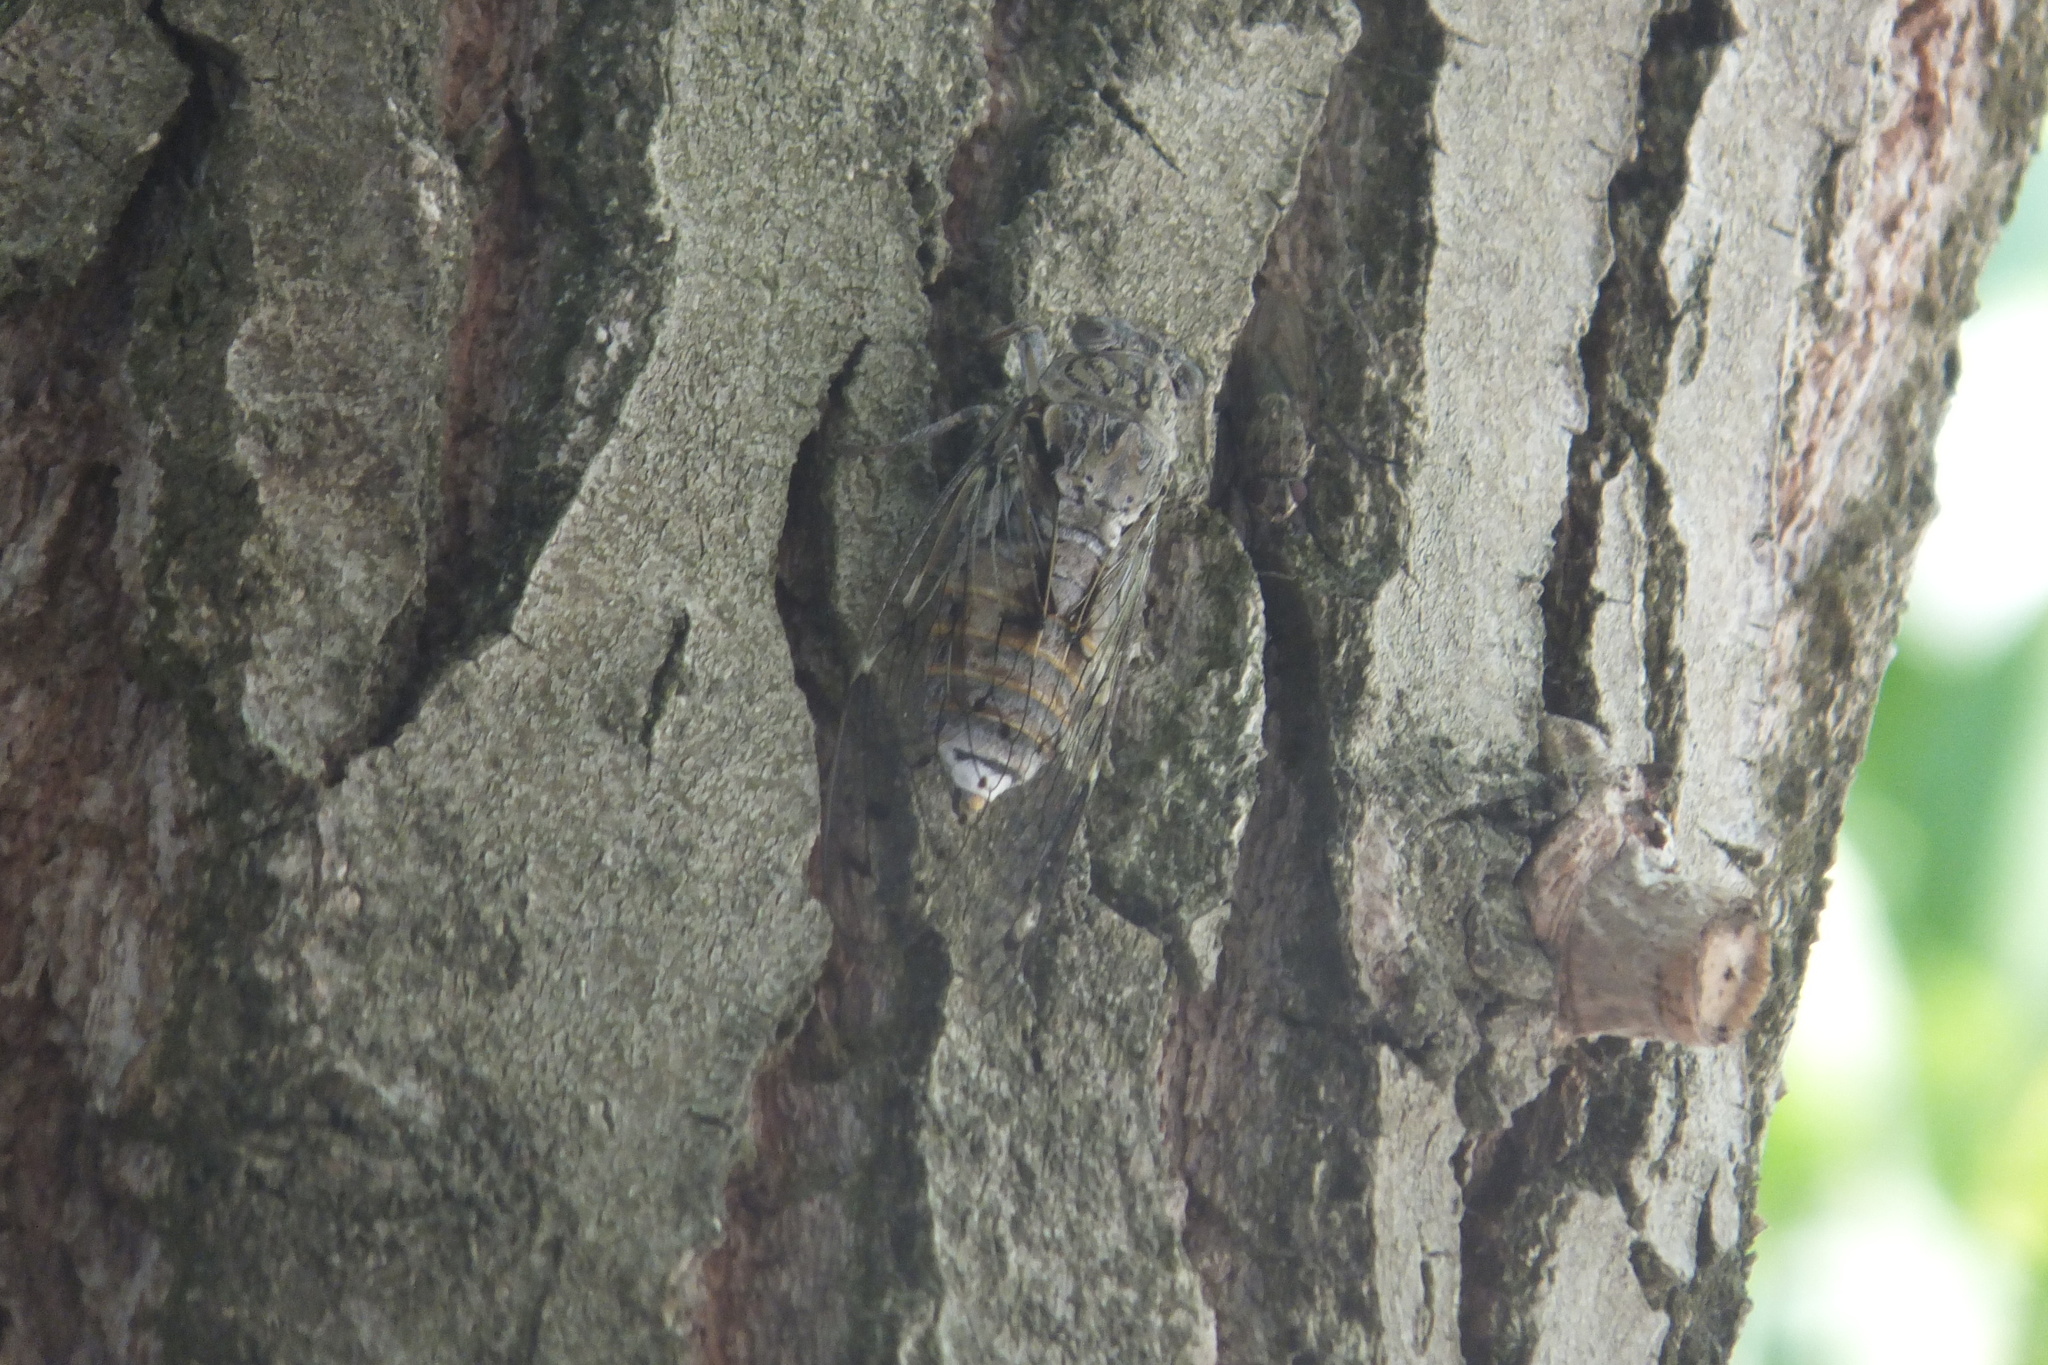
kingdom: Animalia
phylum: Arthropoda
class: Insecta
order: Hemiptera
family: Cicadidae
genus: Cicada
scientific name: Cicada orni
